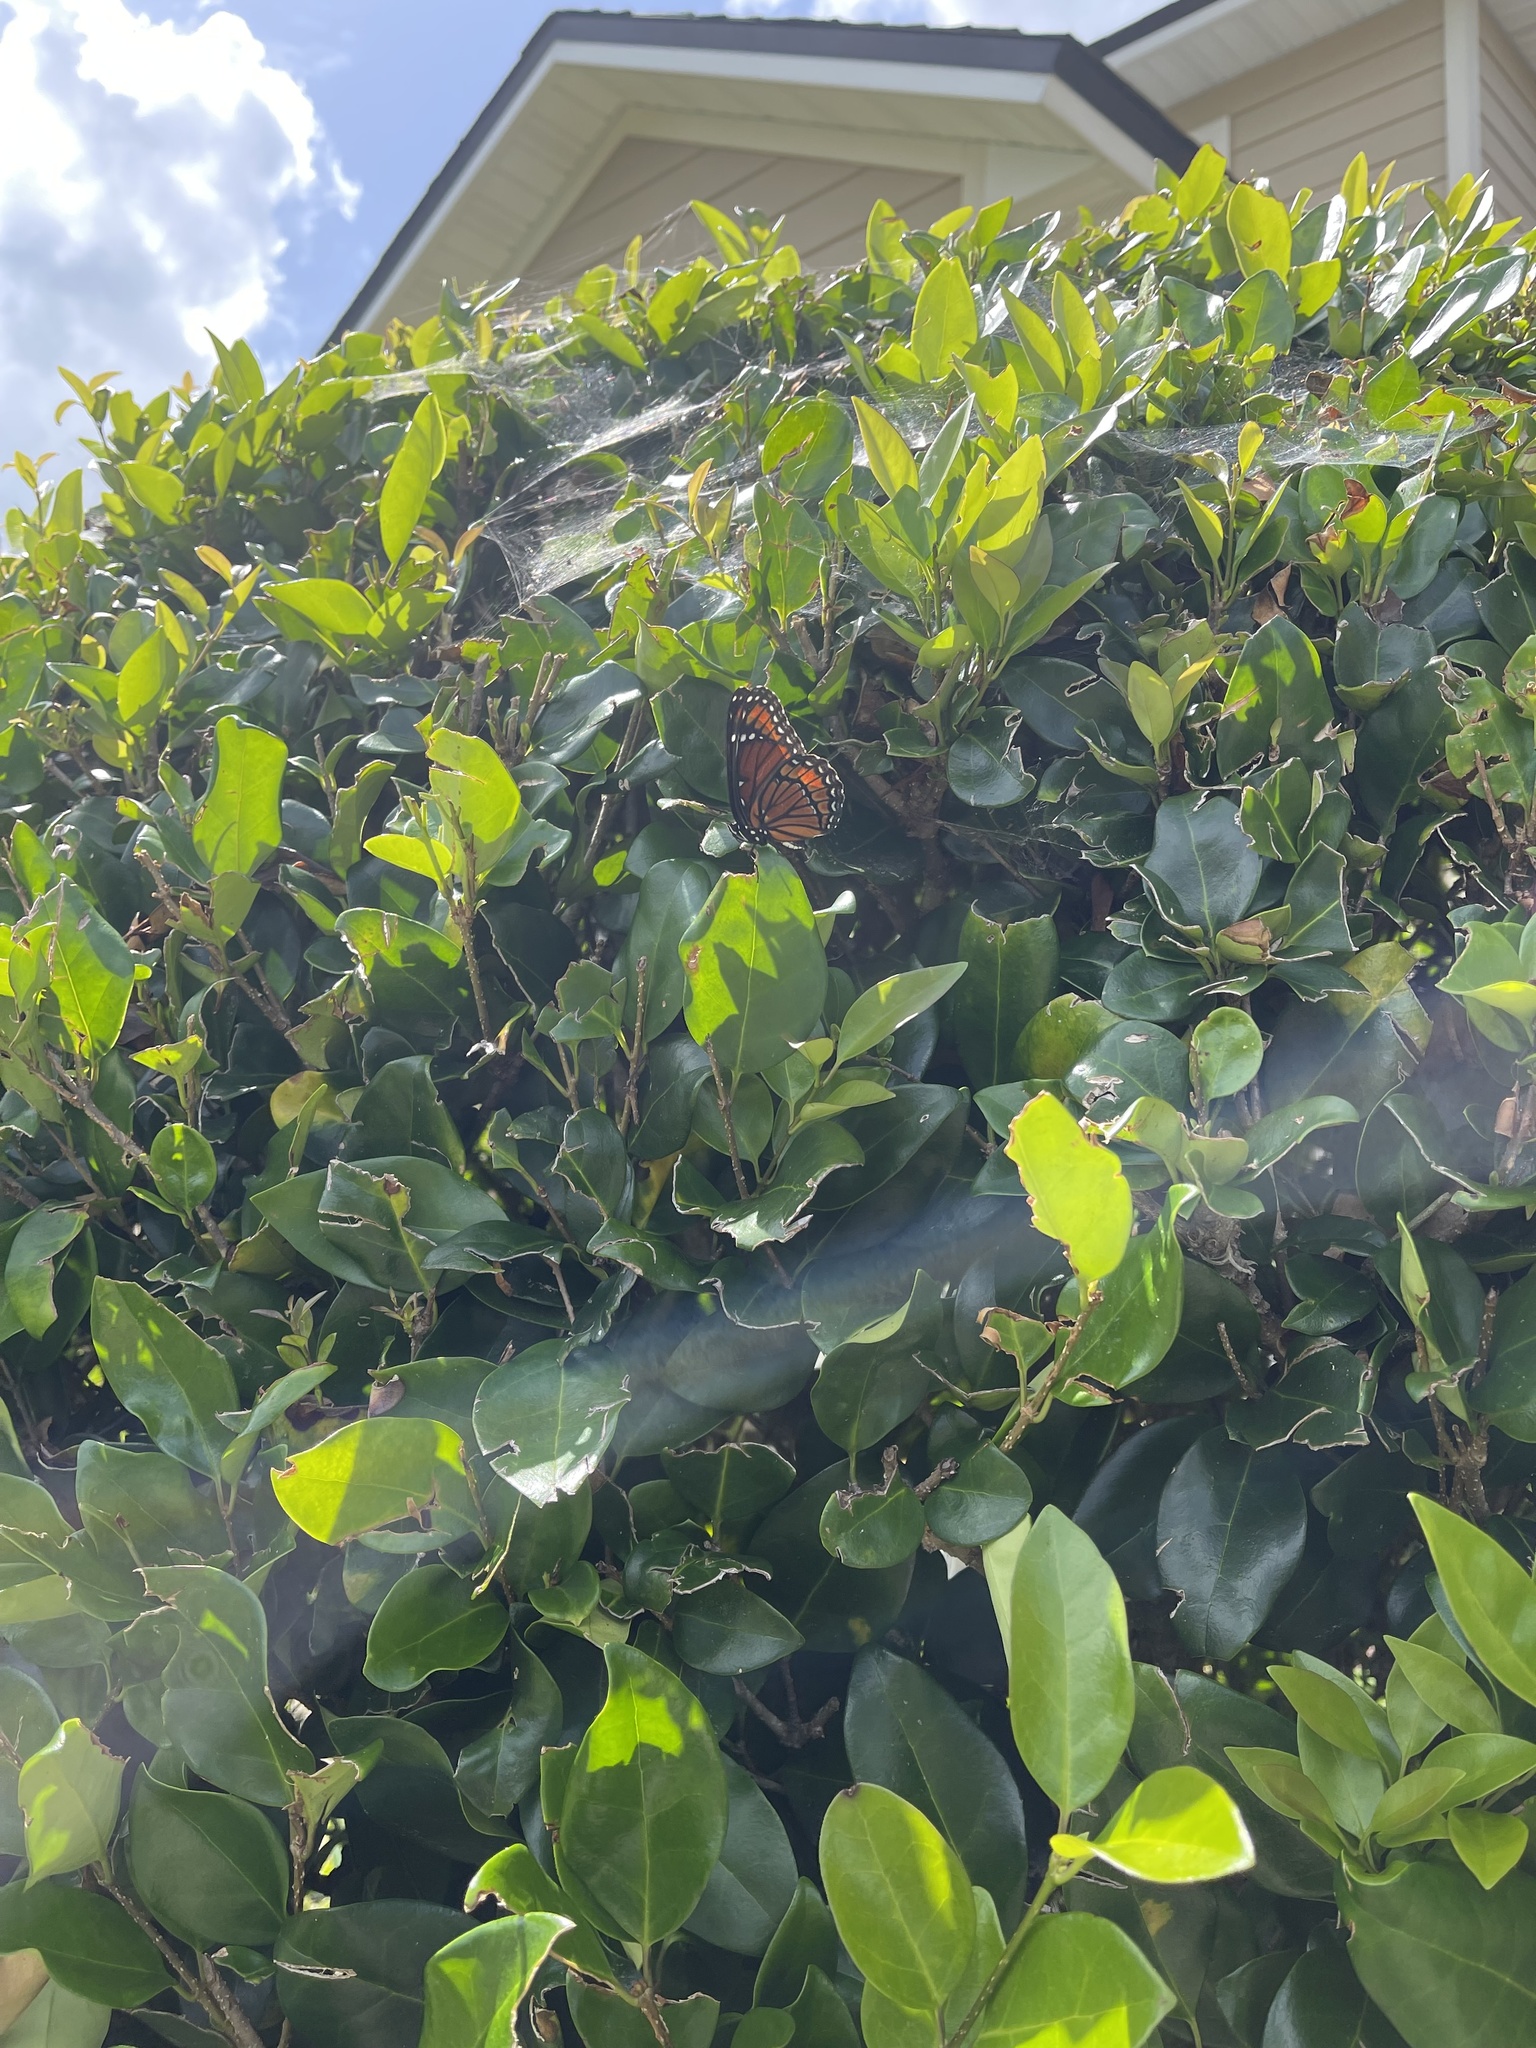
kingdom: Animalia
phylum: Arthropoda
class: Insecta
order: Lepidoptera
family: Nymphalidae
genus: Limenitis
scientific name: Limenitis archippus
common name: Viceroy
